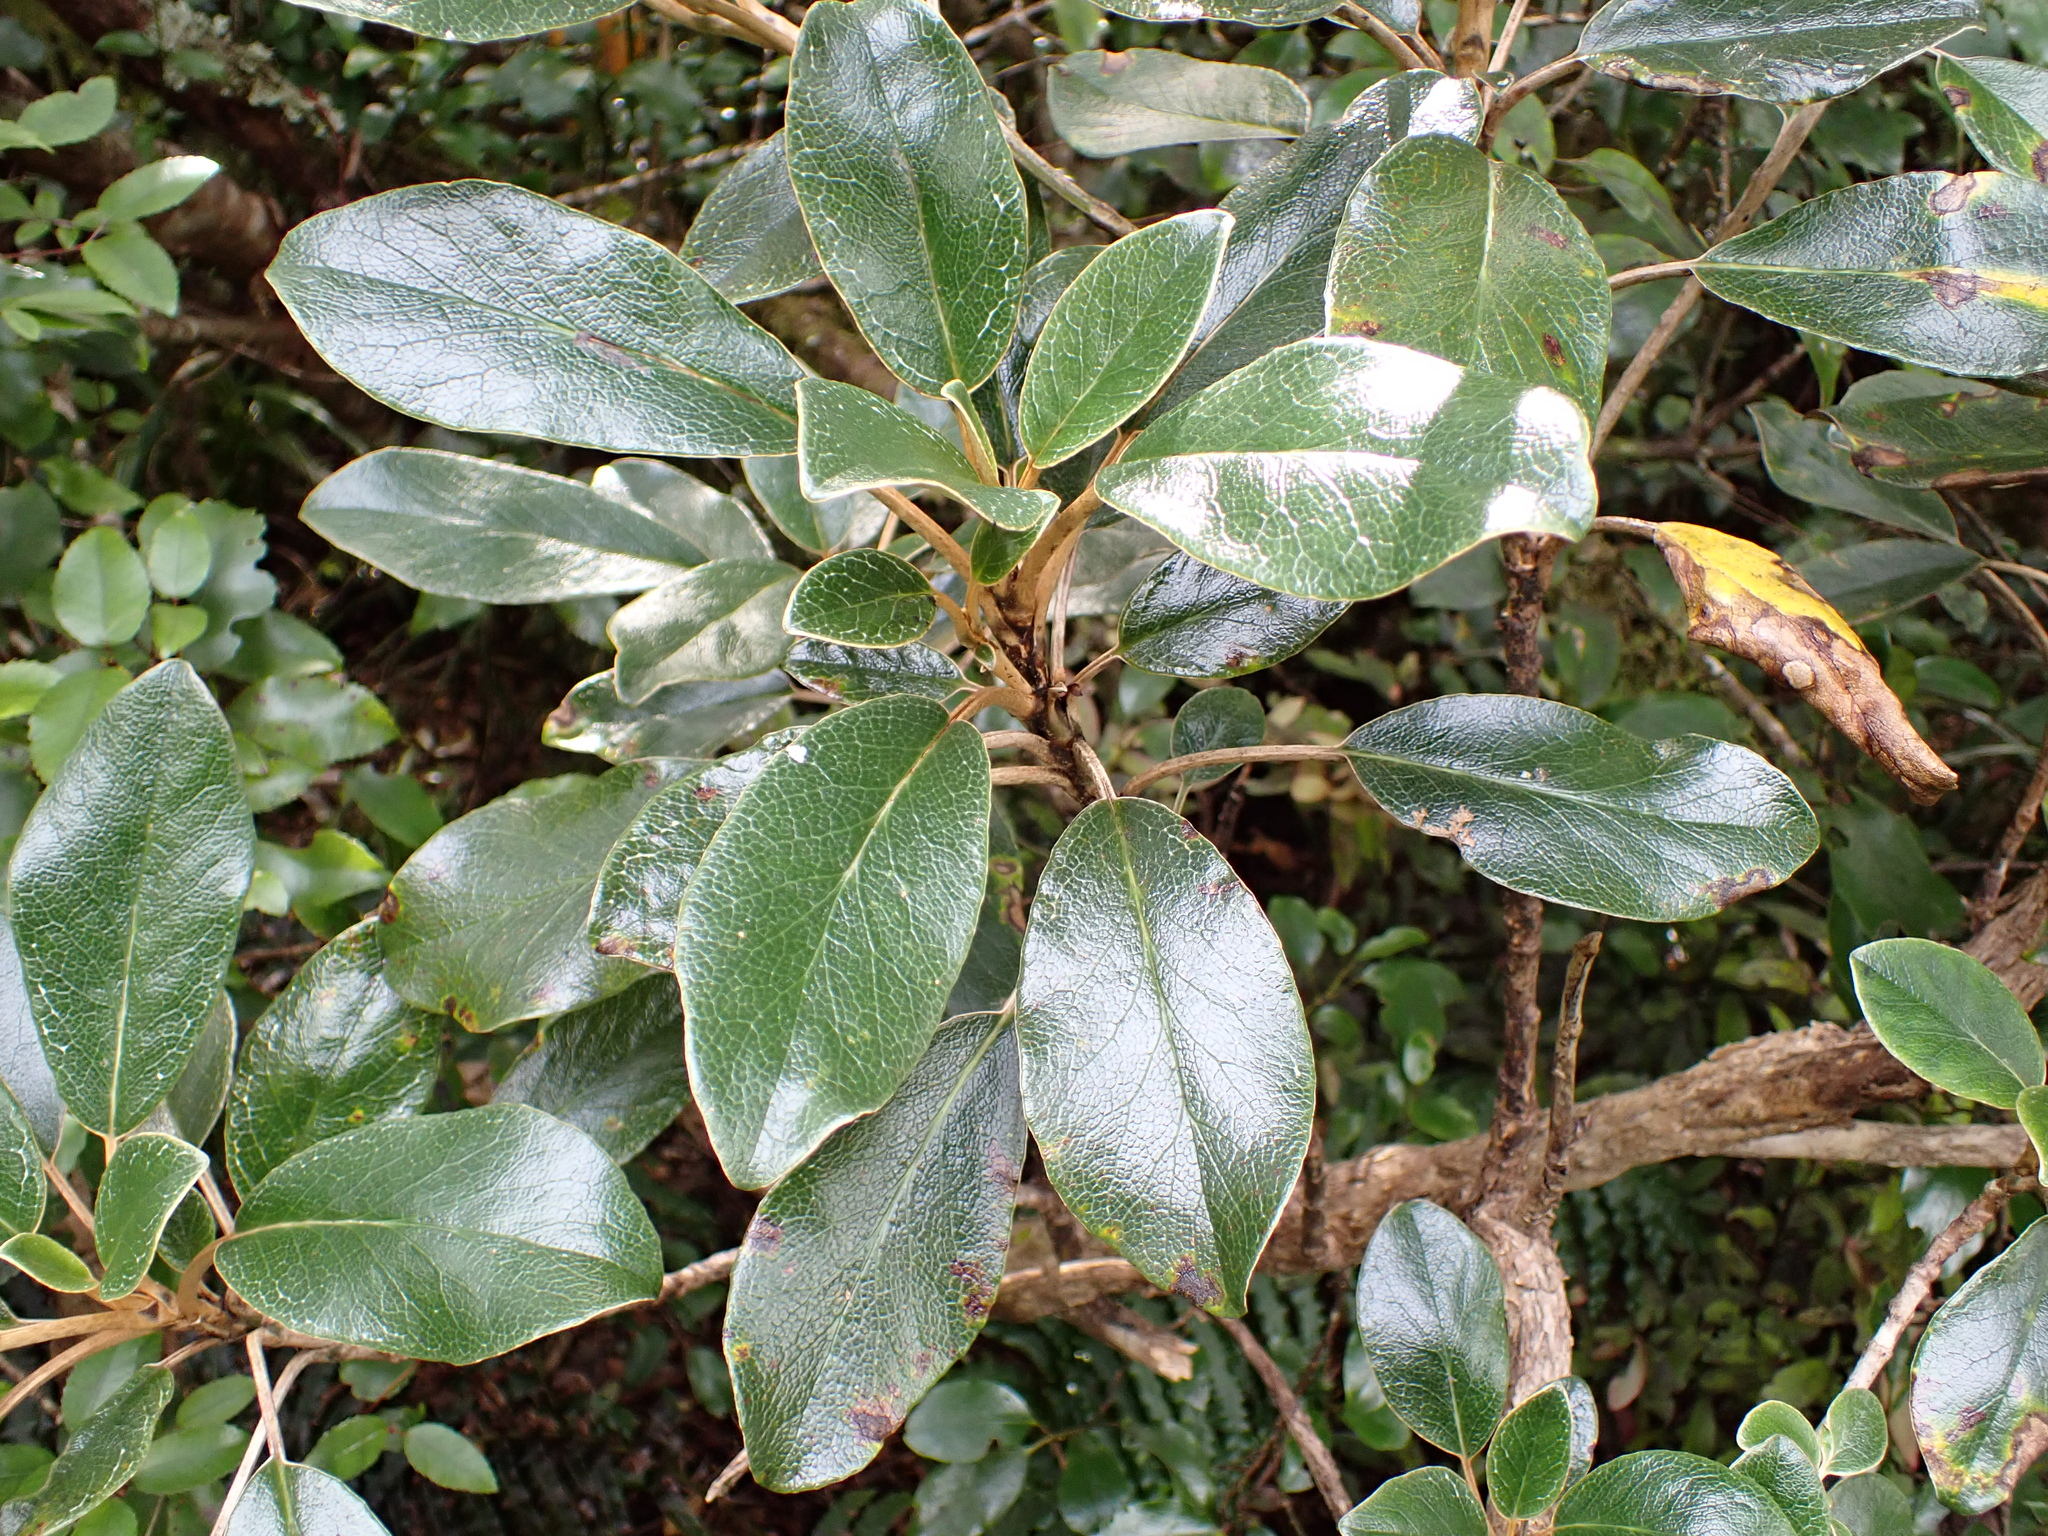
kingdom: Plantae
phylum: Tracheophyta
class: Magnoliopsida
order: Asterales
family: Asteraceae
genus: Brachyglottis
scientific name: Brachyglottis elaeagnifolia
